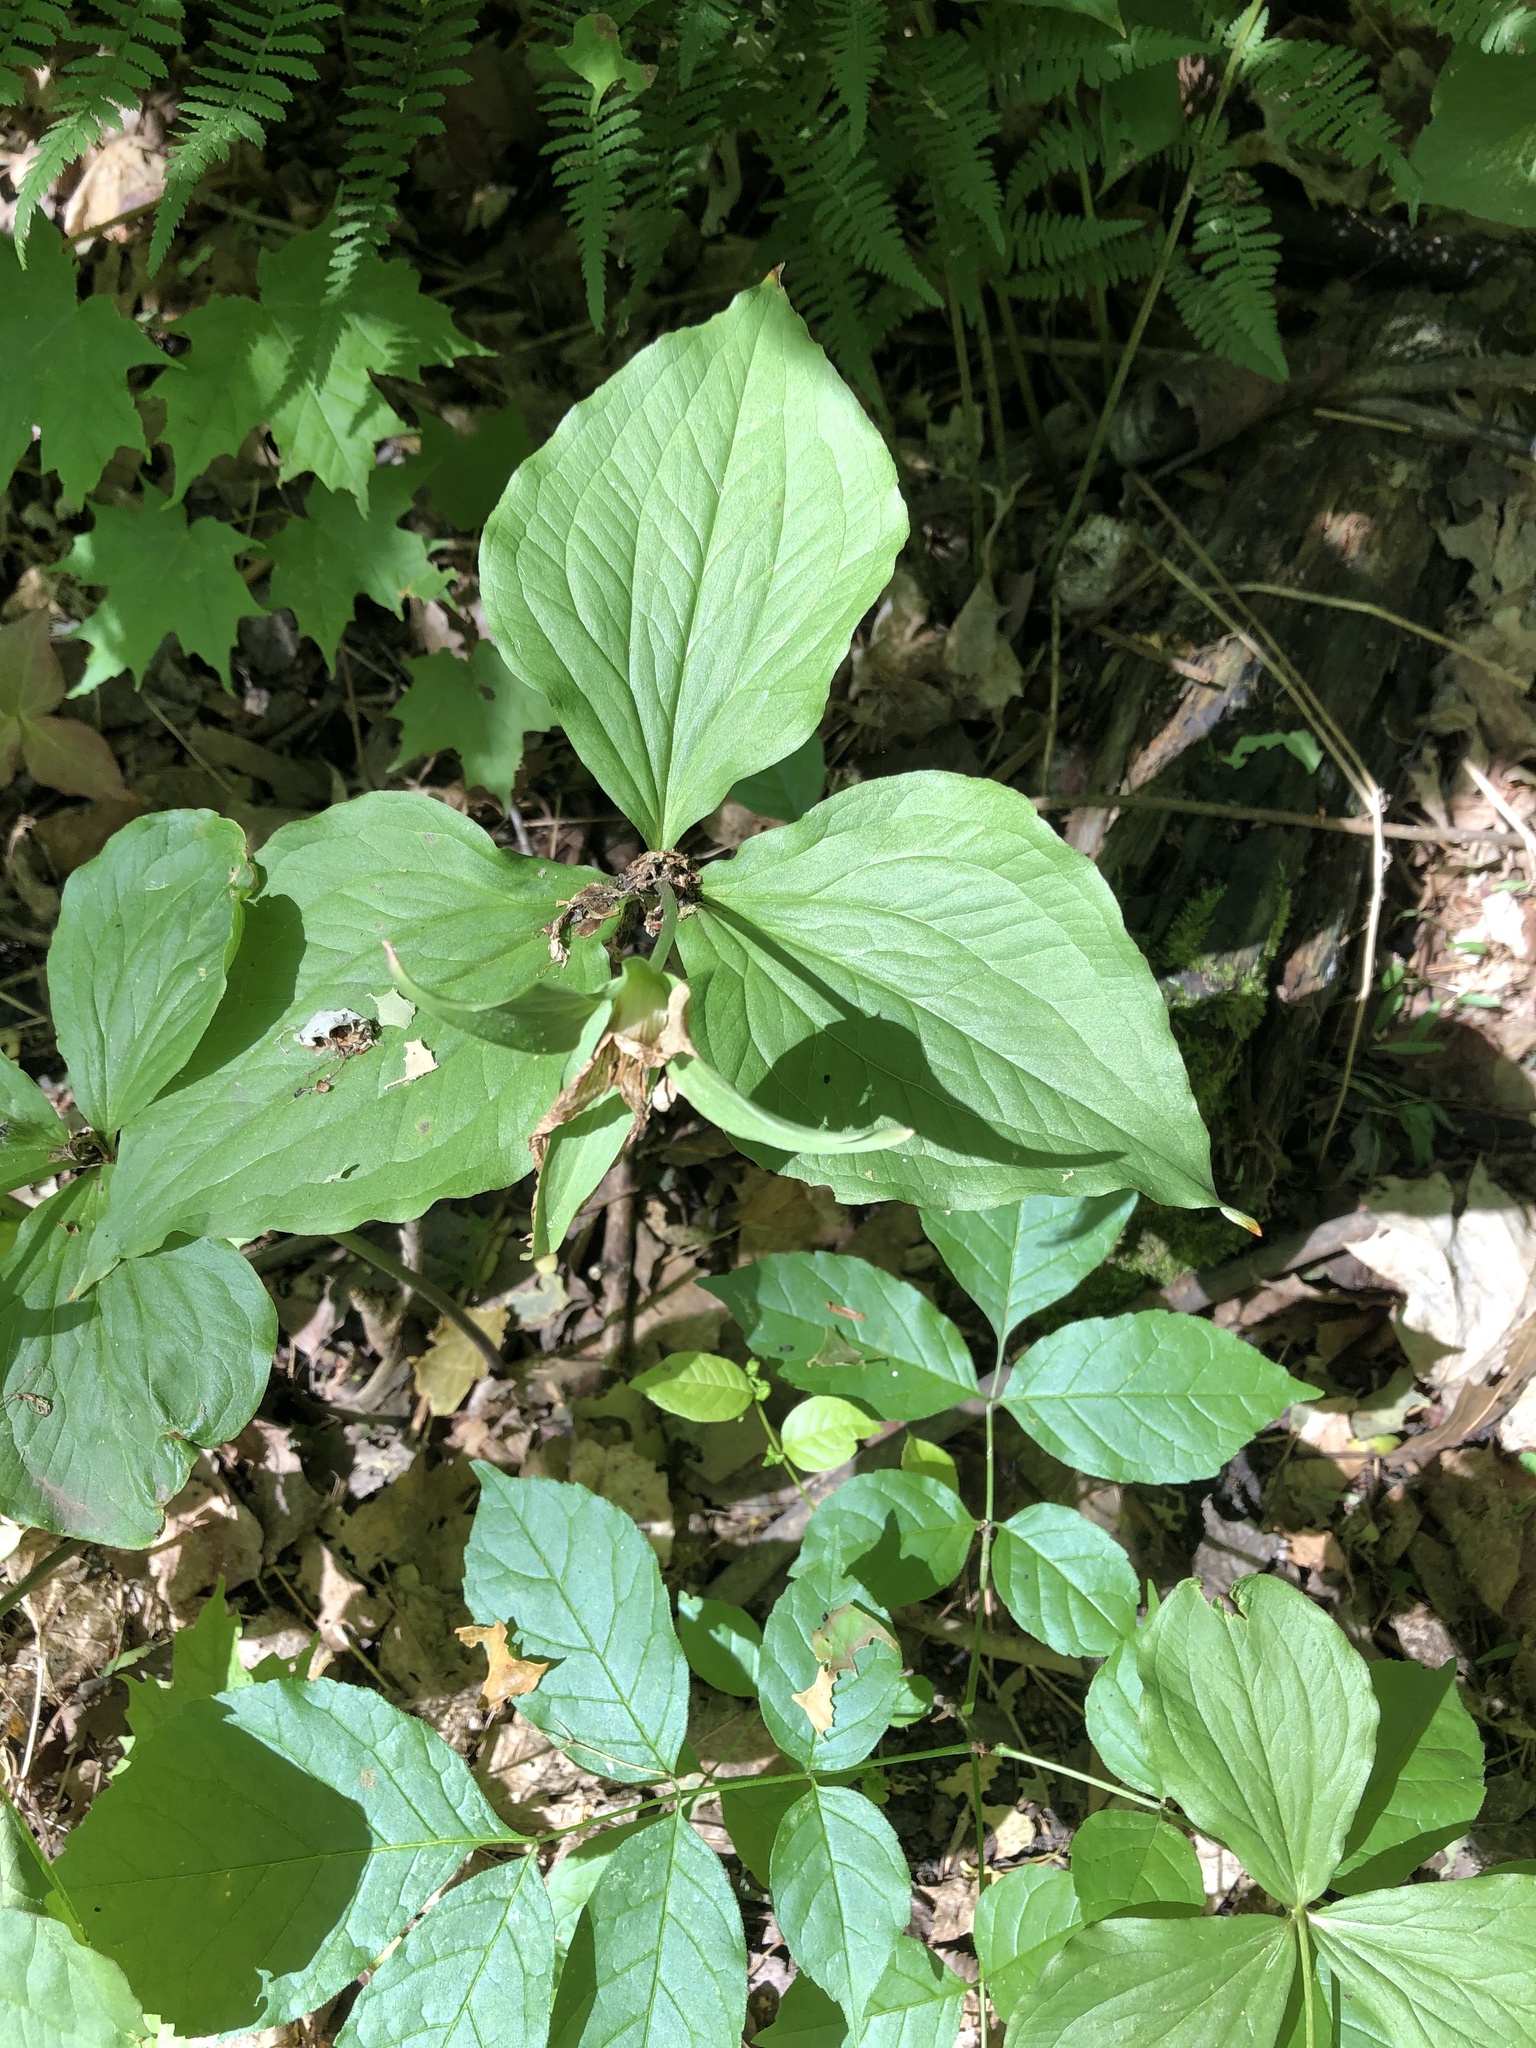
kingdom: Plantae
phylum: Tracheophyta
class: Liliopsida
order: Liliales
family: Melanthiaceae
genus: Trillium
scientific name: Trillium grandiflorum
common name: Great white trillium
